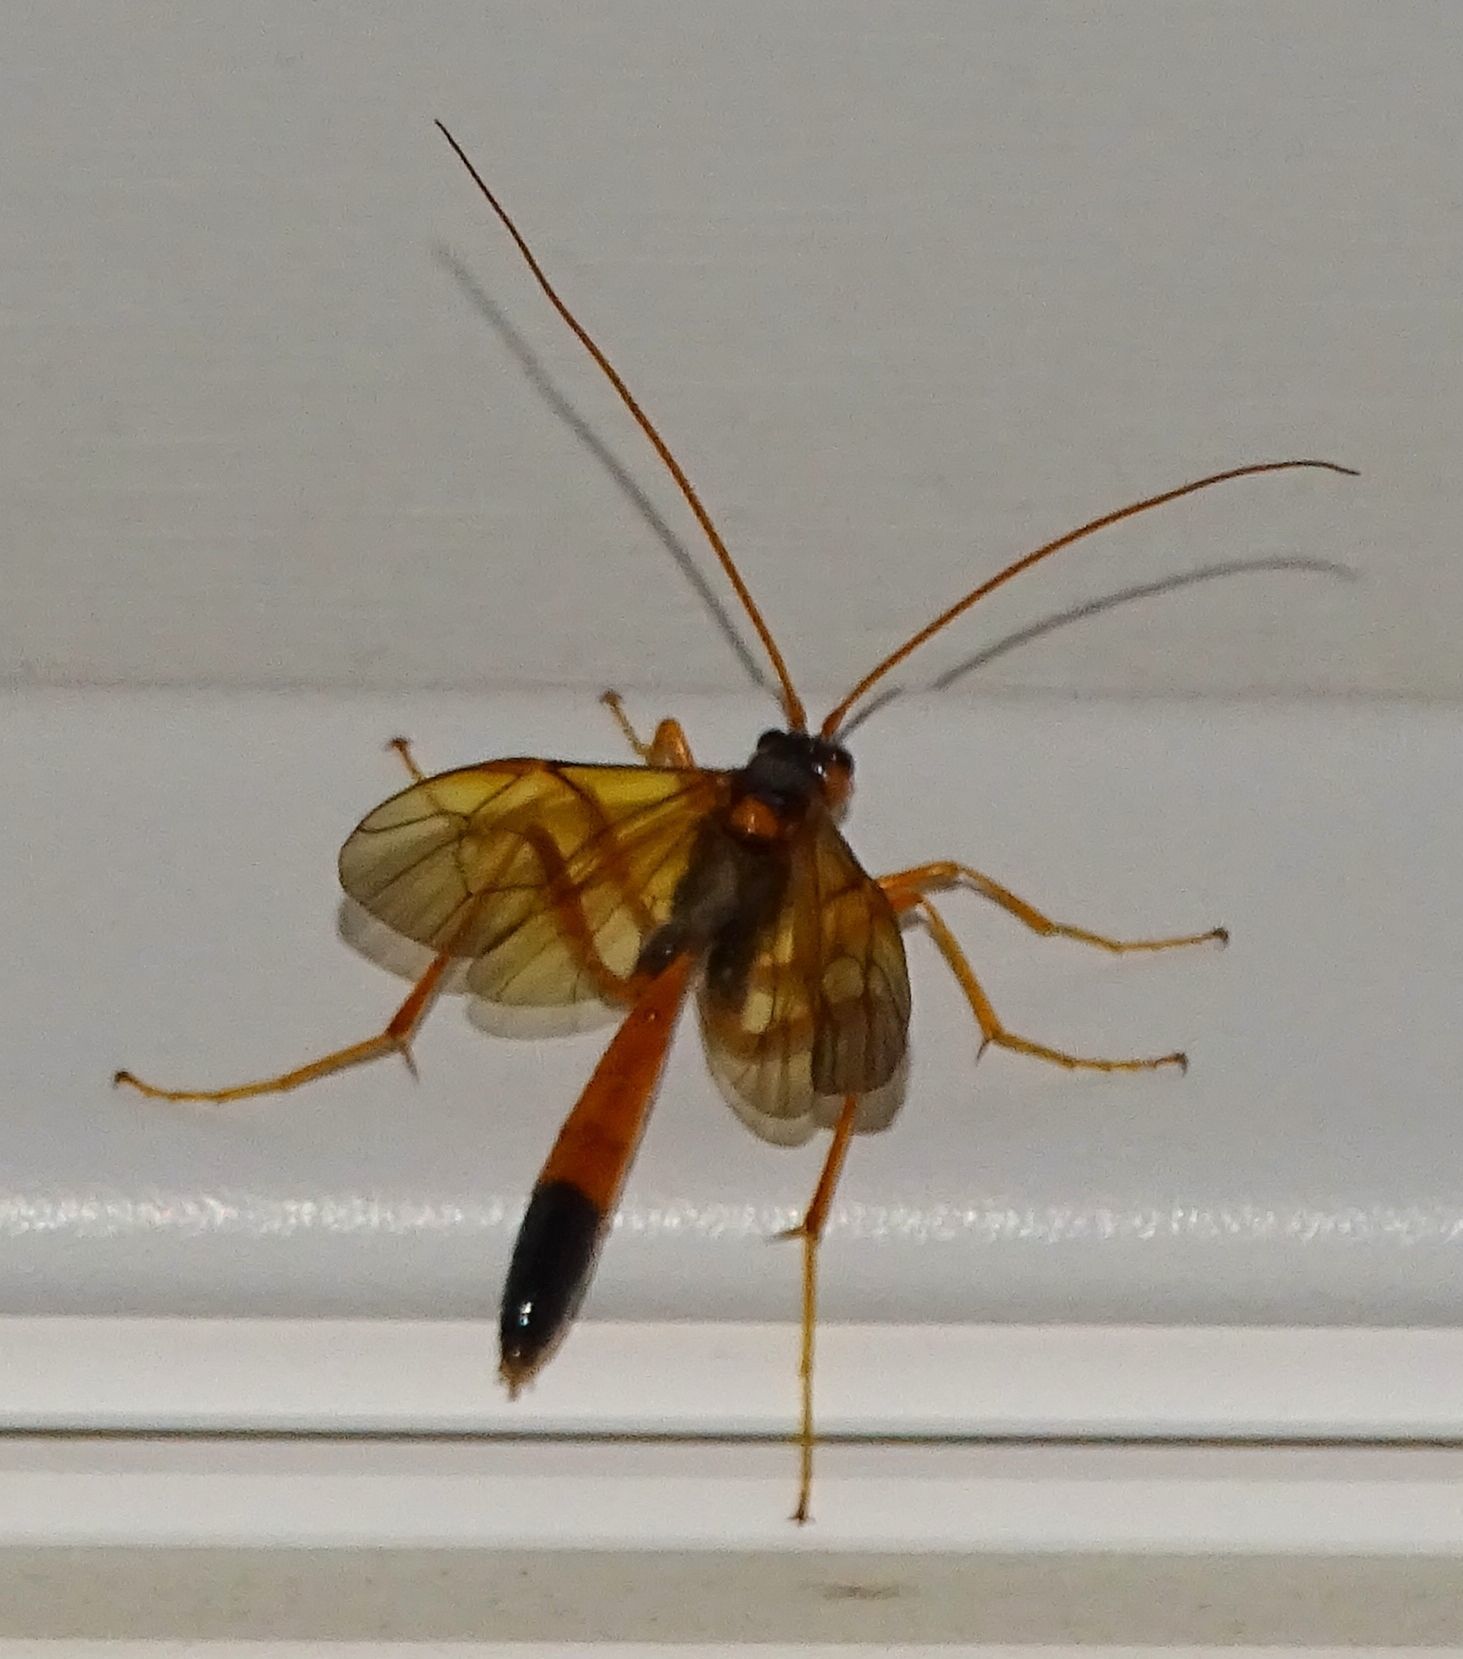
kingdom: Animalia
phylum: Arthropoda
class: Insecta
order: Hymenoptera
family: Ichneumonidae
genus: Opheltes
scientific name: Opheltes glaucopterus
